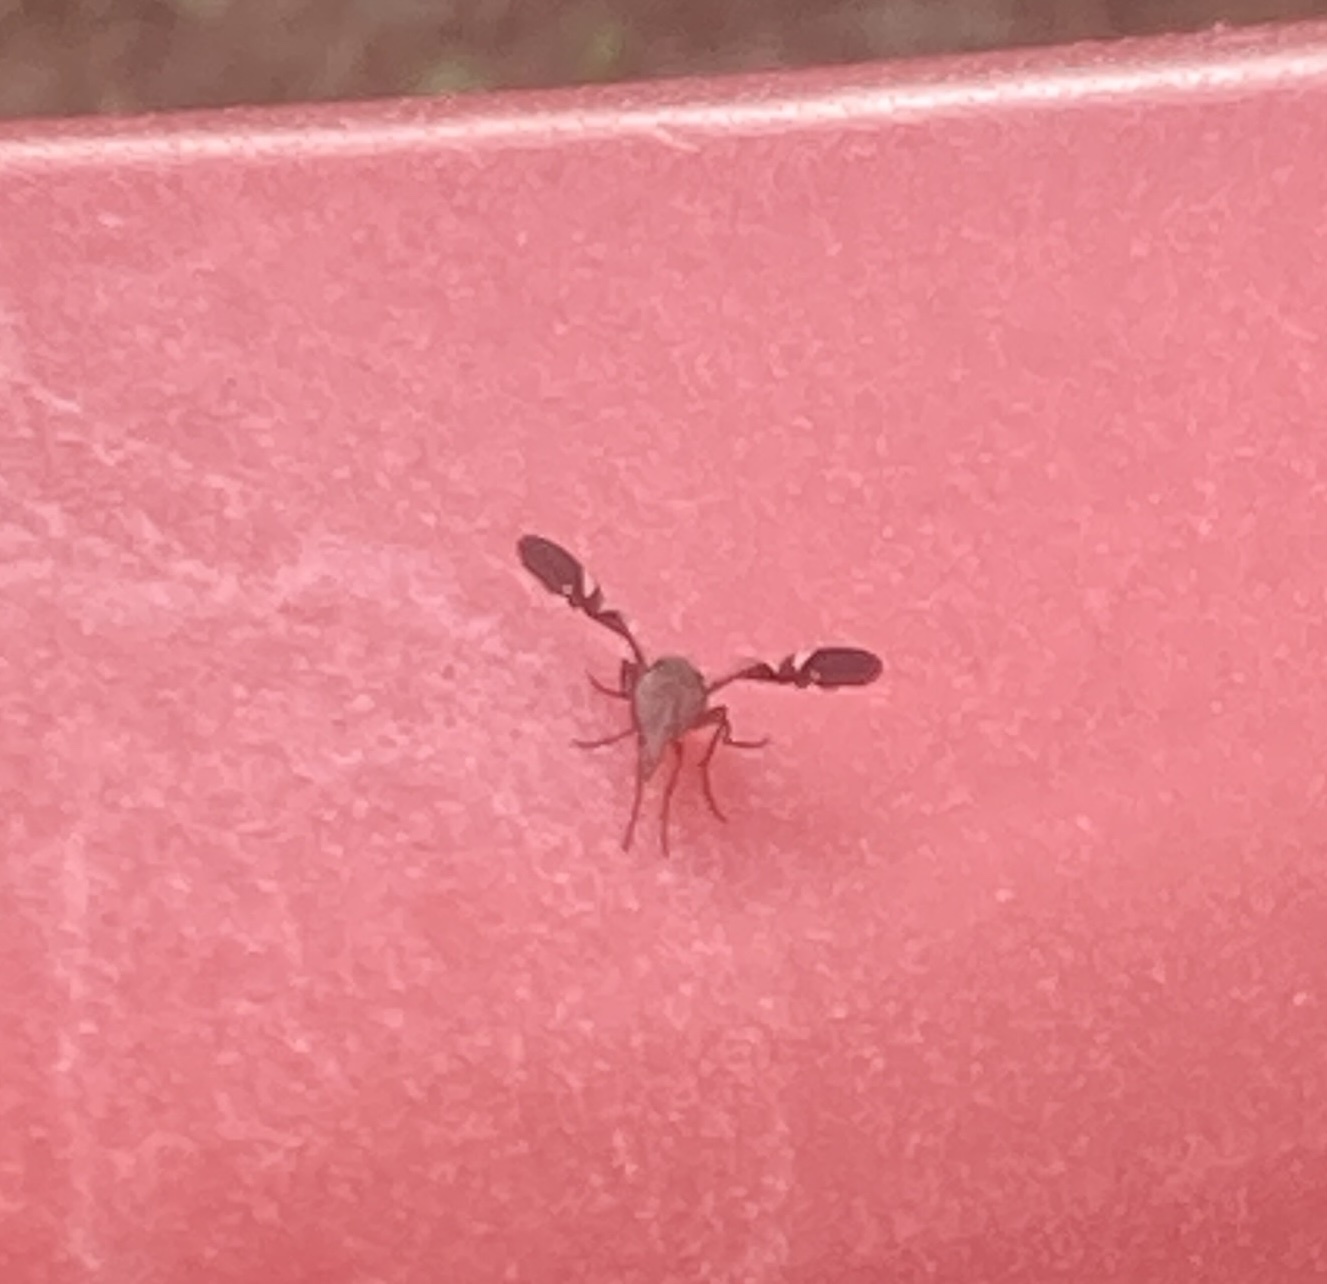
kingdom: Animalia
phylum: Arthropoda
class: Insecta
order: Diptera
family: Ulidiidae
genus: Delphinia
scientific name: Delphinia picta
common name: Common picture-winged fly
